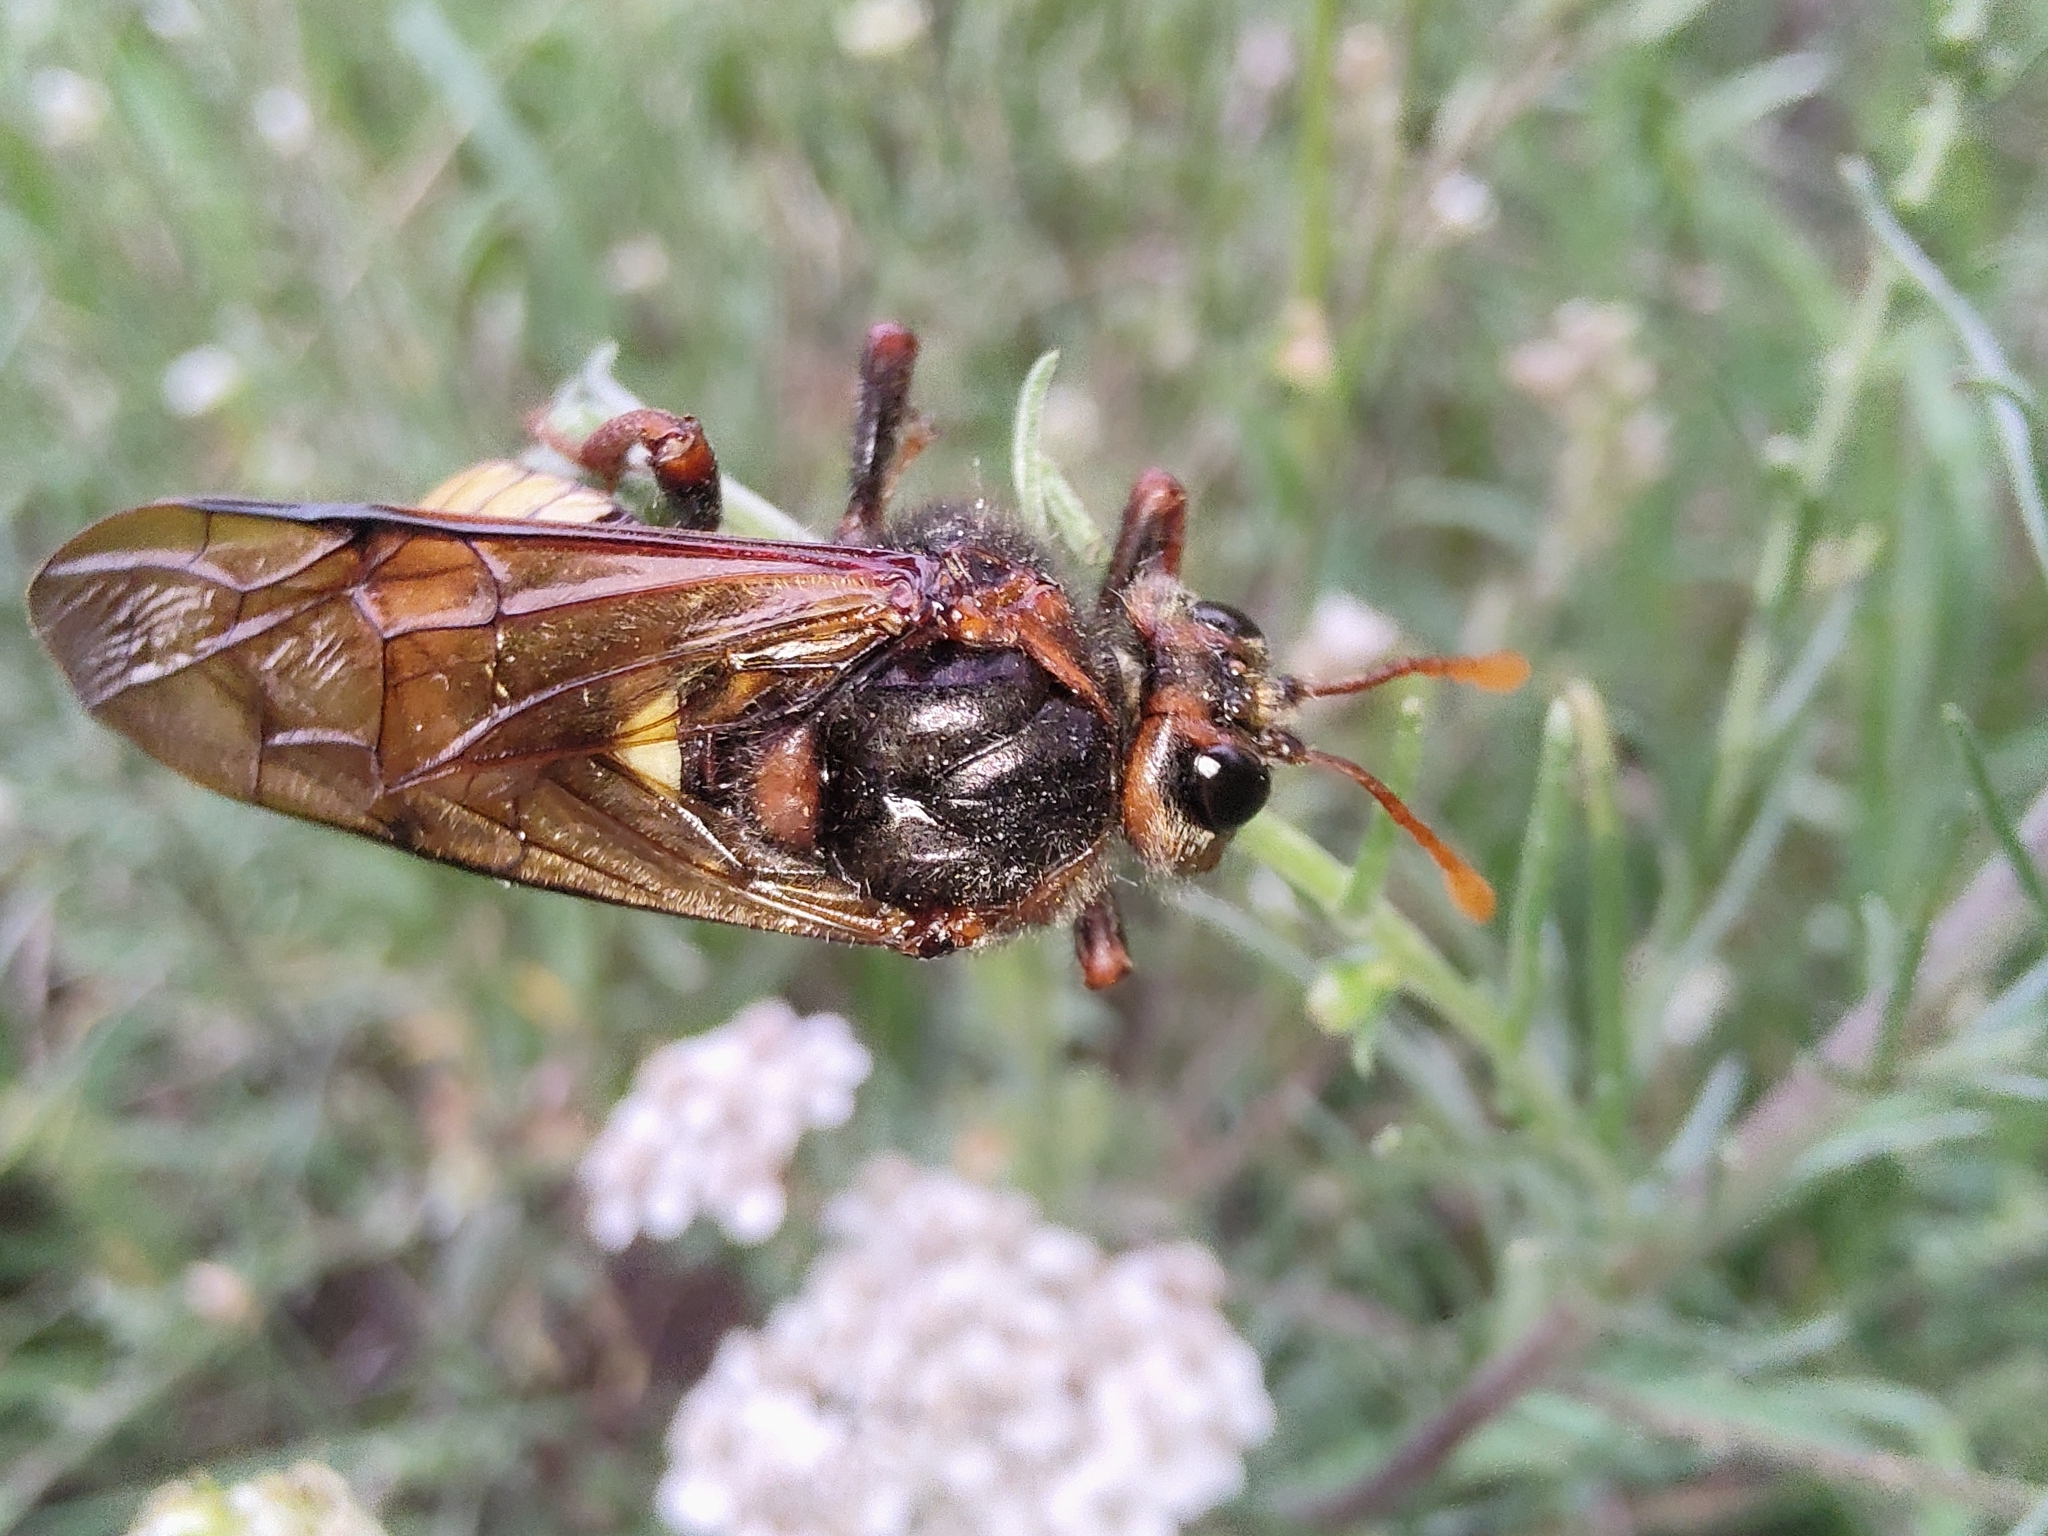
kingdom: Animalia
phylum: Arthropoda
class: Insecta
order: Hymenoptera
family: Cimbicidae
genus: Cimbex
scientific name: Cimbex connatus
